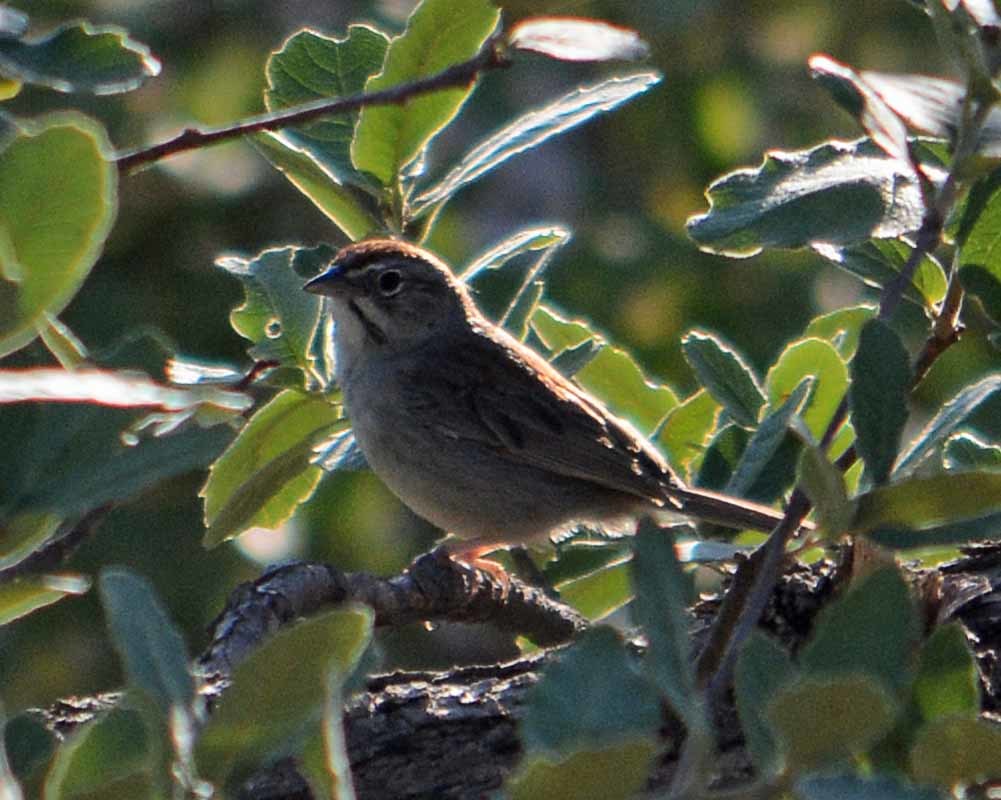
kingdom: Animalia
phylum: Chordata
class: Aves
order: Passeriformes
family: Passerellidae
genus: Aimophila
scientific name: Aimophila ruficeps
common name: Rufous-crowned sparrow
